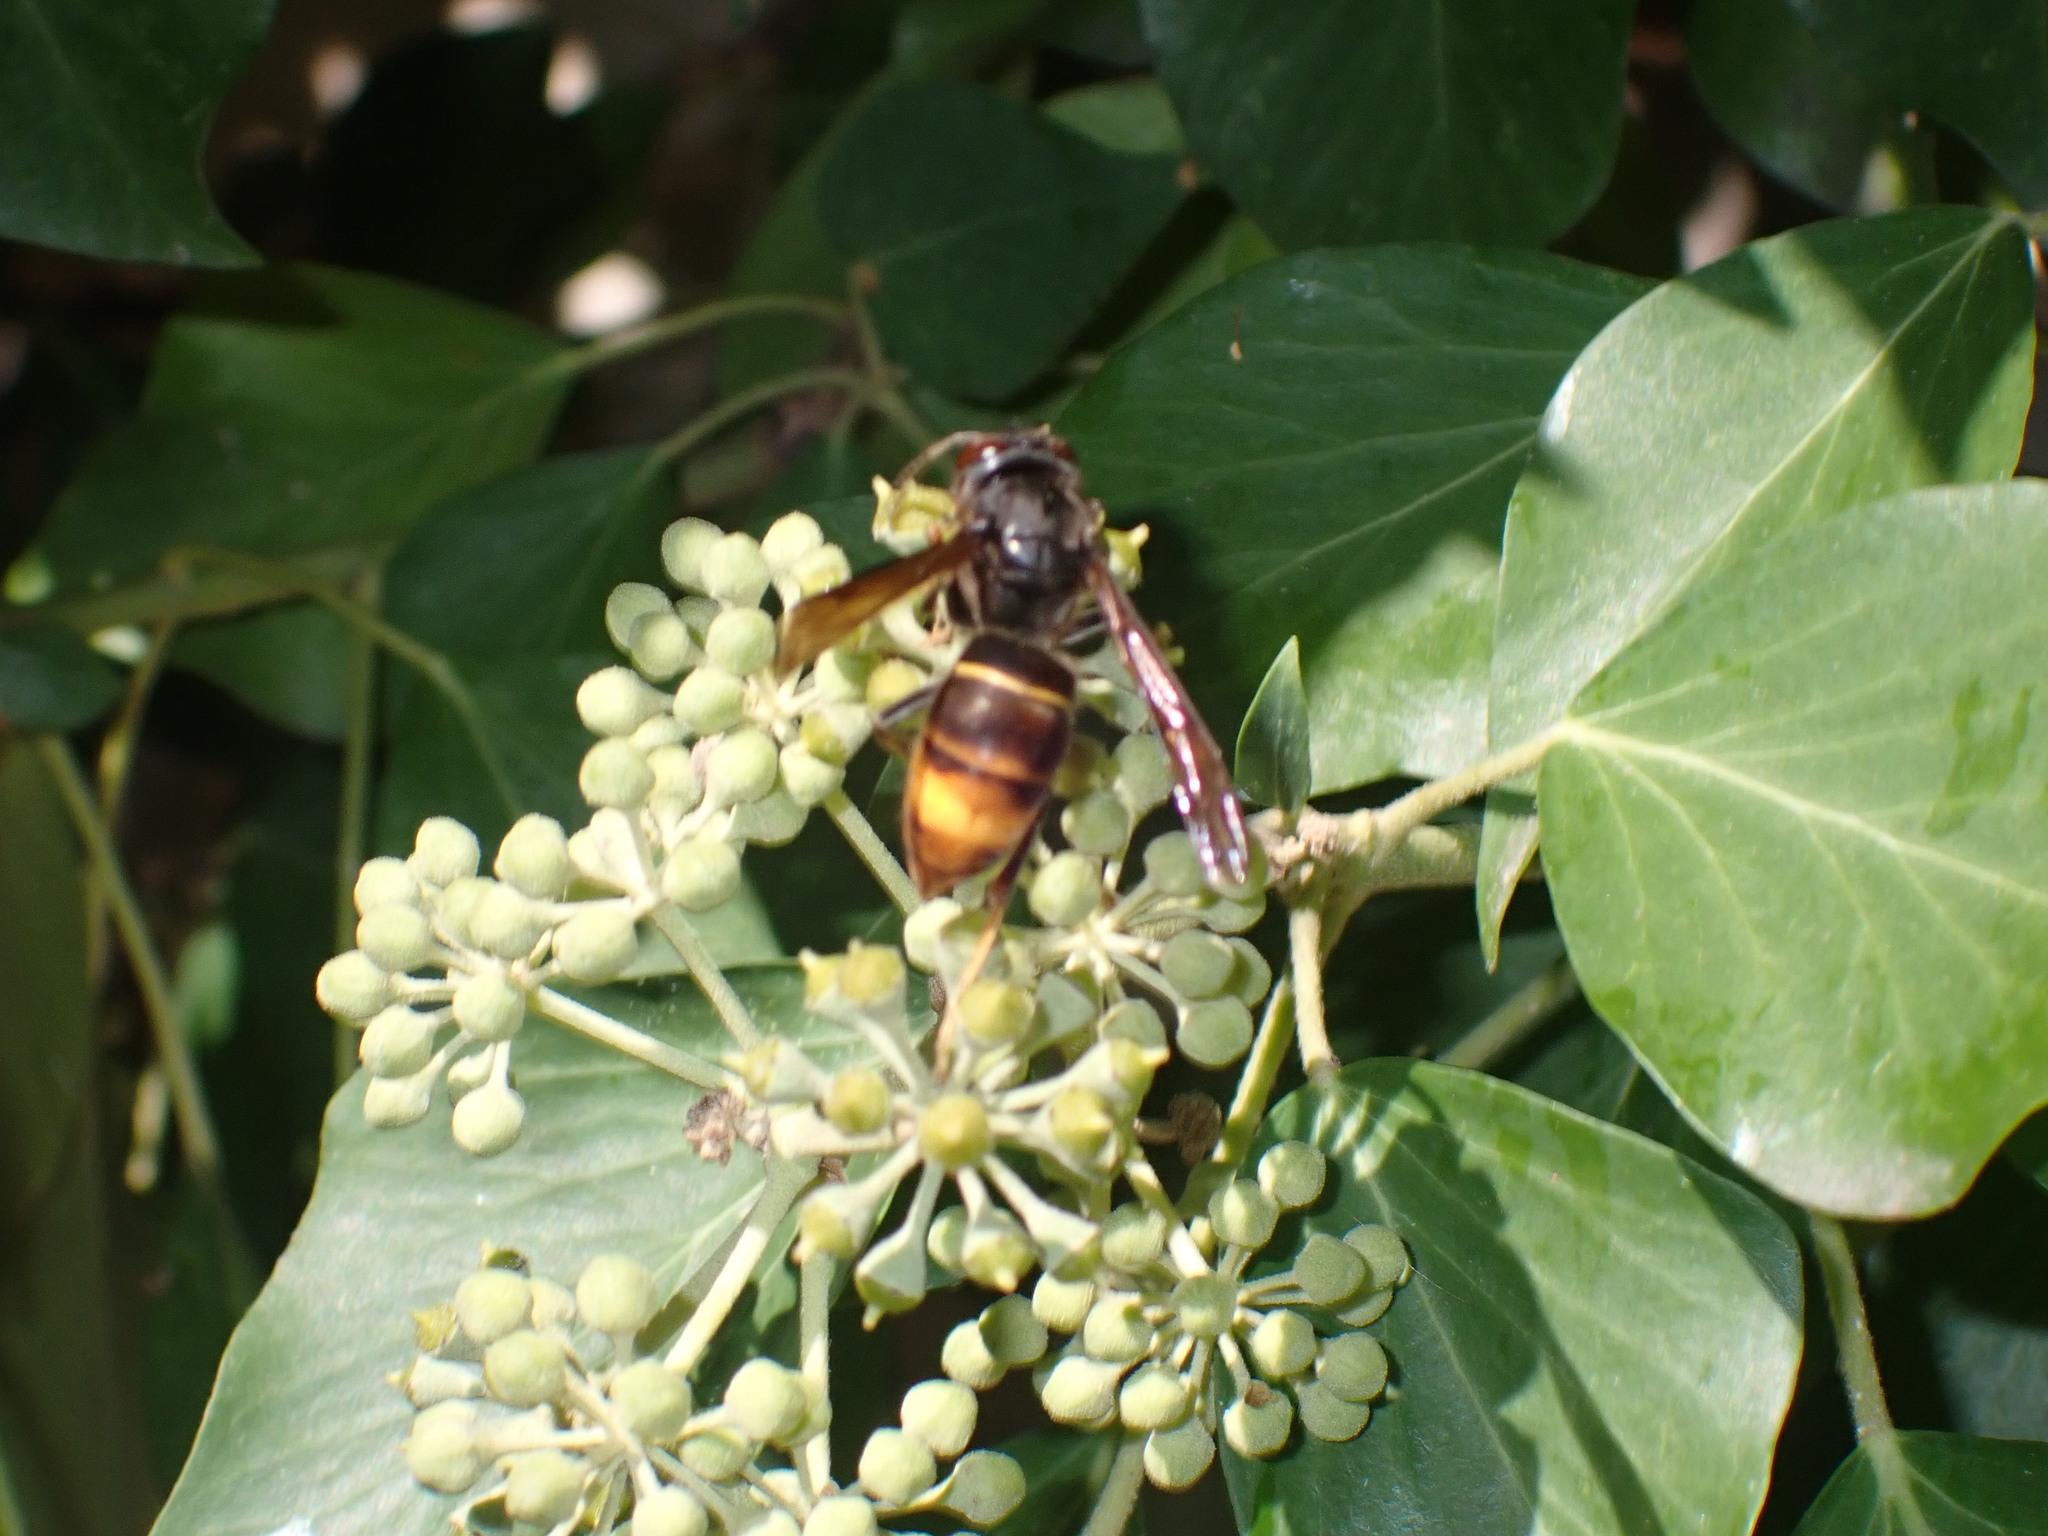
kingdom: Animalia
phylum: Arthropoda
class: Insecta
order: Hymenoptera
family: Vespidae
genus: Vespa
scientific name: Vespa velutina
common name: Asian hornet
